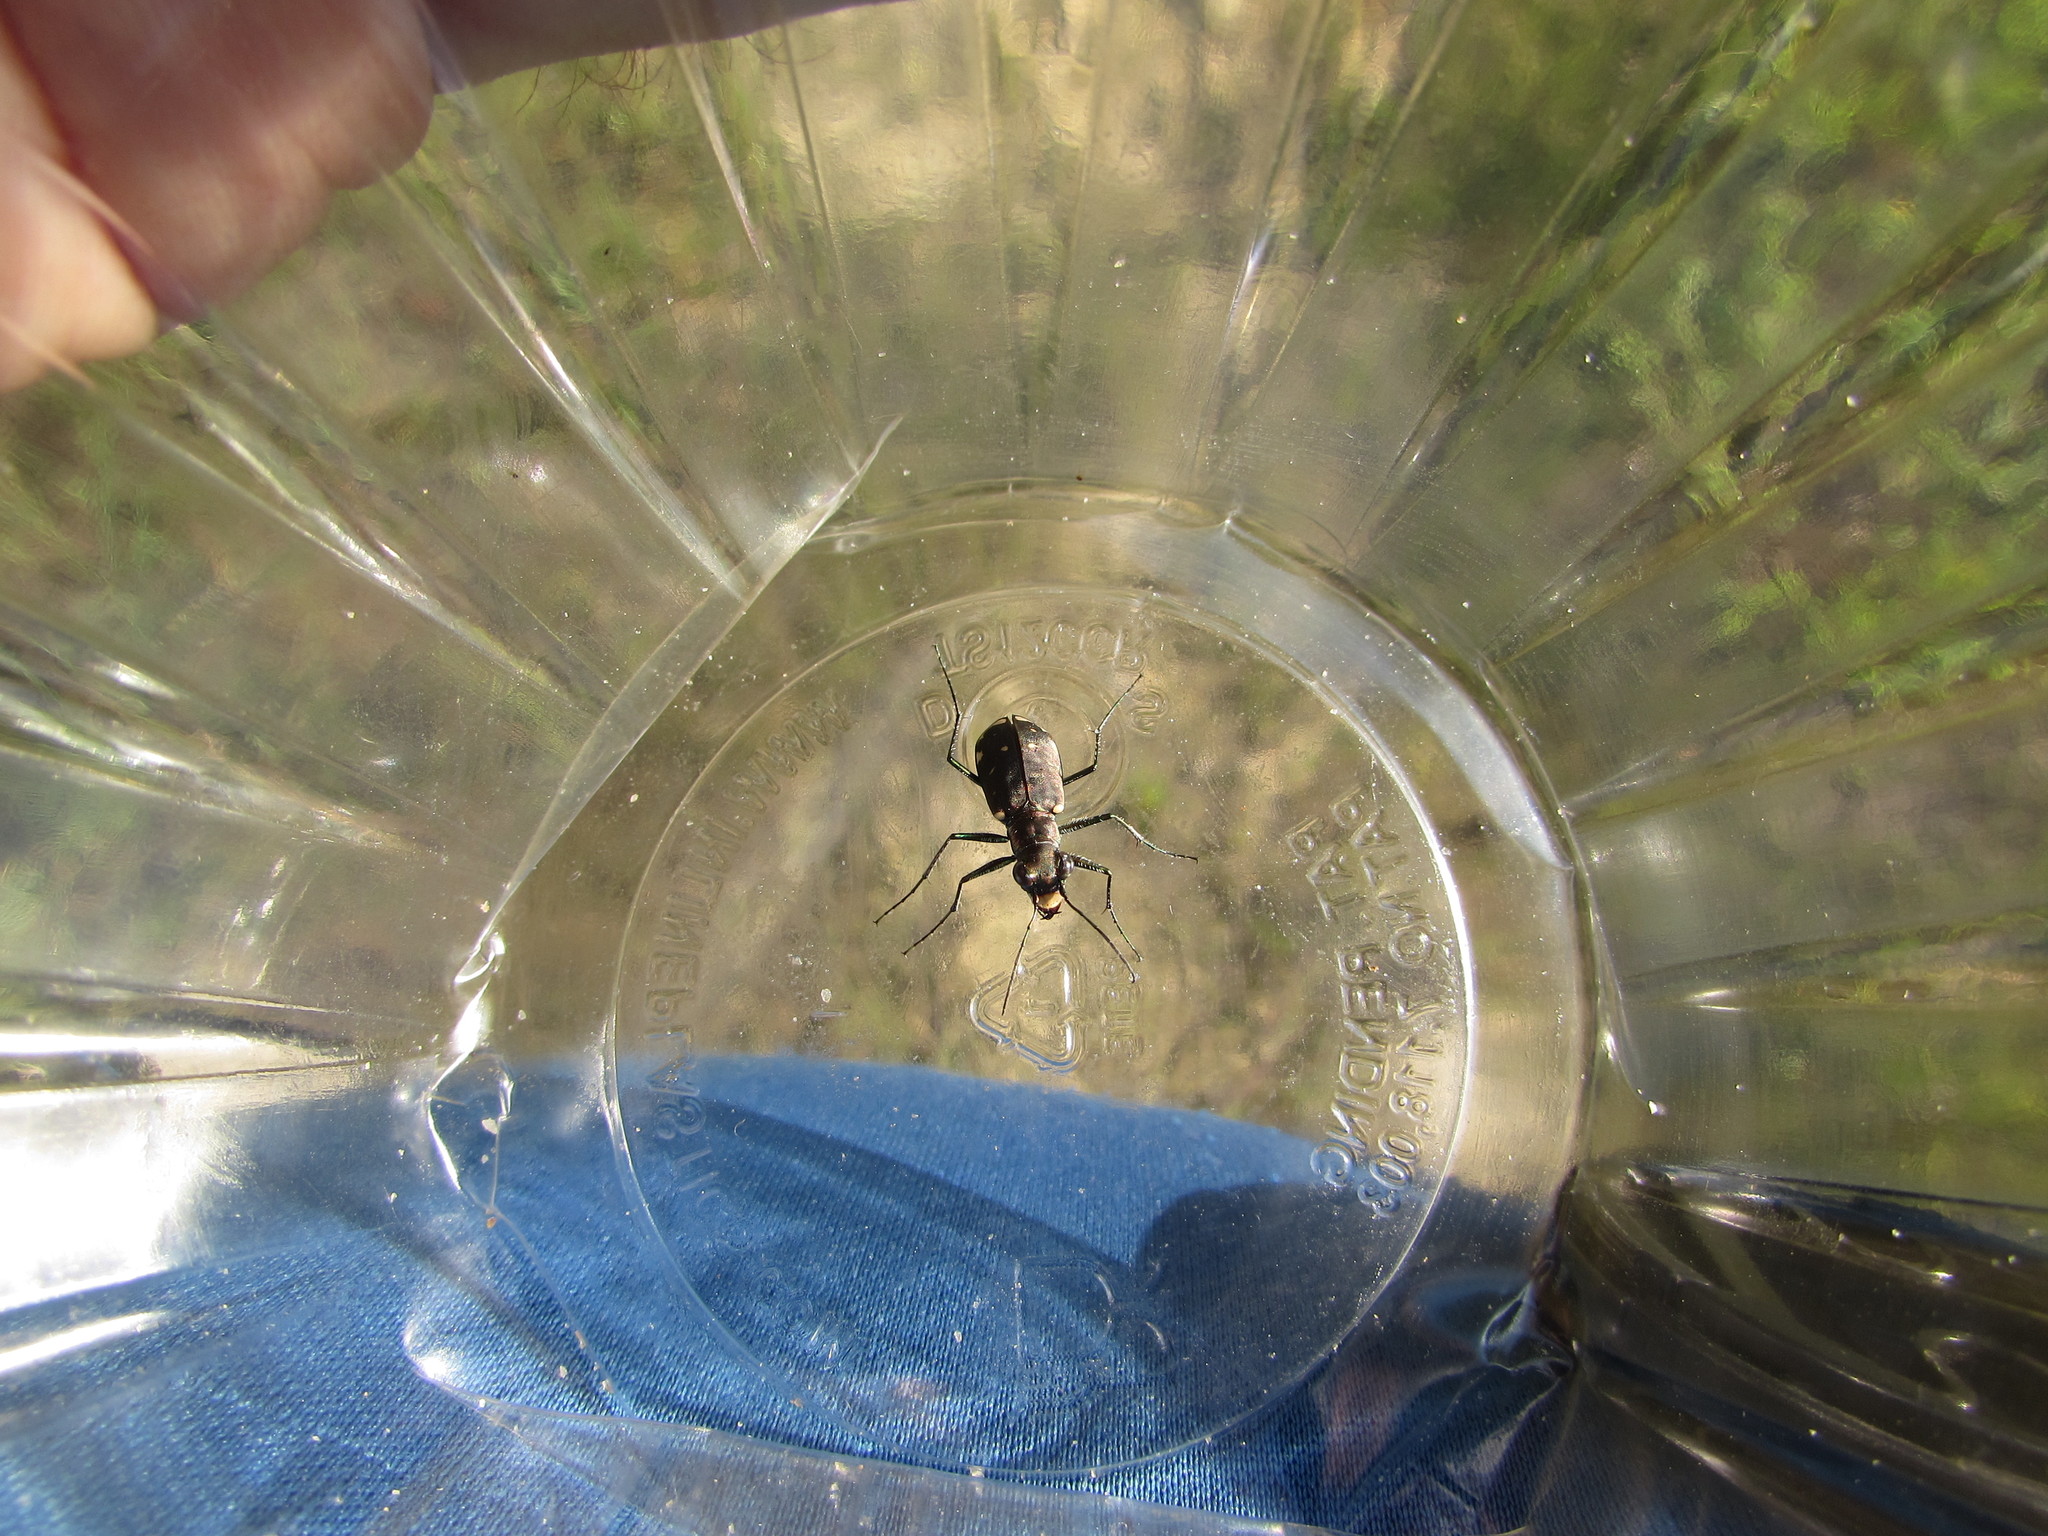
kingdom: Animalia
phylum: Arthropoda
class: Insecta
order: Coleoptera
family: Carabidae
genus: Cicindela
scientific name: Cicindela rufiventris
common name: Eastern red-bellied tiger beetle
